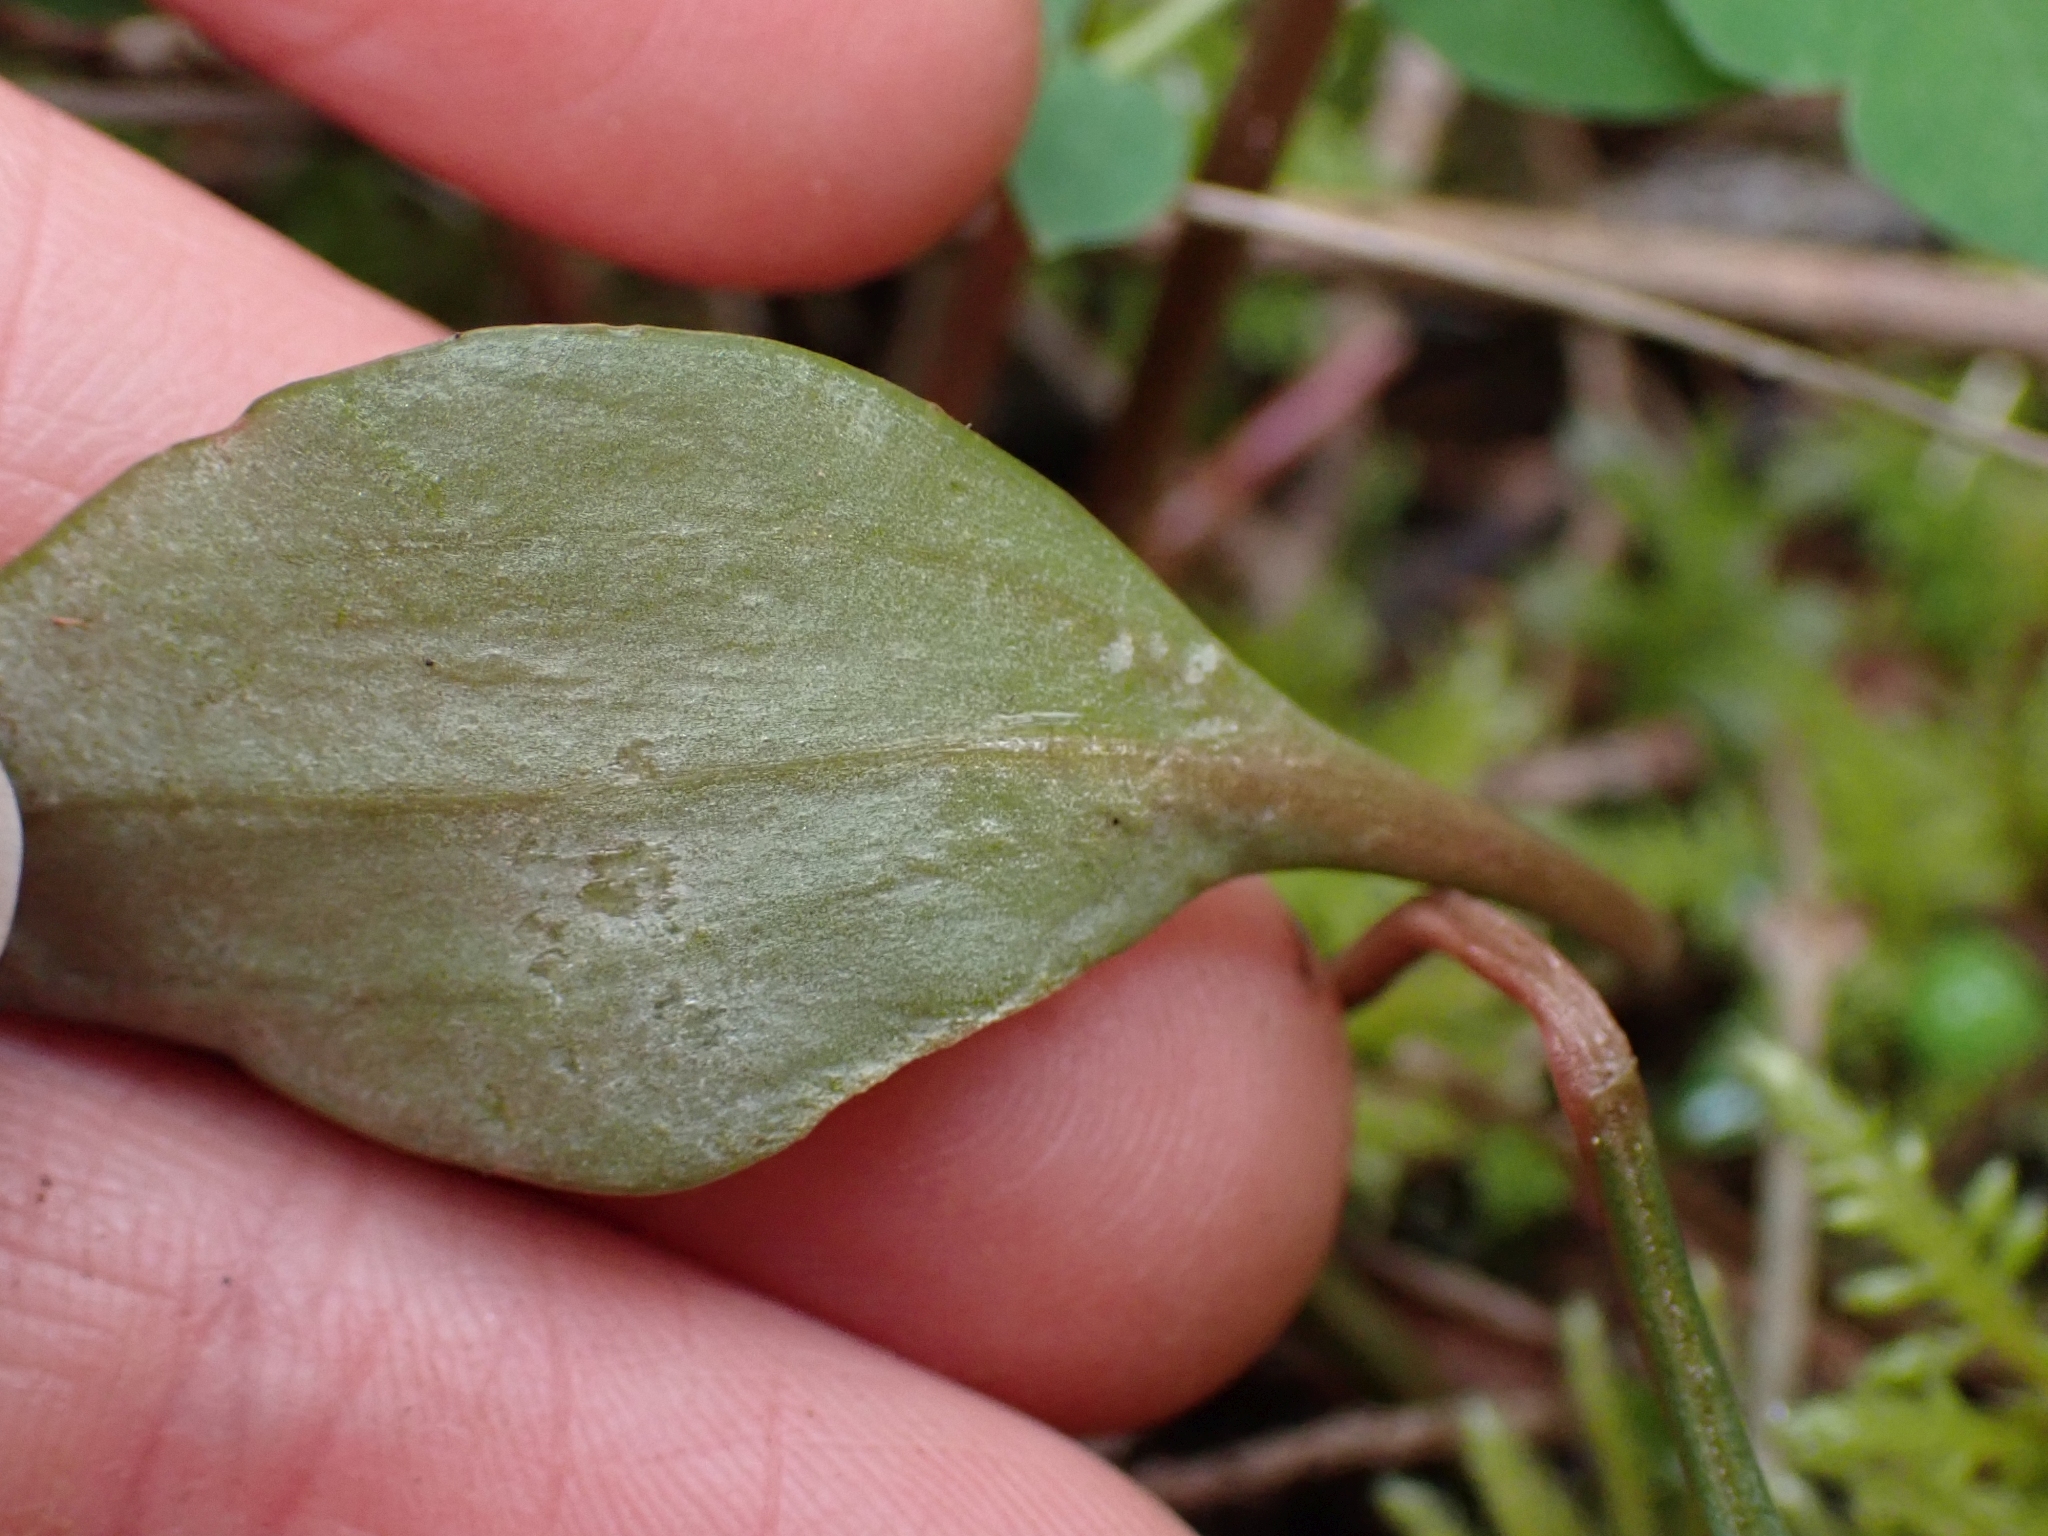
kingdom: Plantae
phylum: Tracheophyta
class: Magnoliopsida
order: Caryophyllales
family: Montiaceae
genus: Claytonia
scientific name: Claytonia sibirica
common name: Pink purslane
